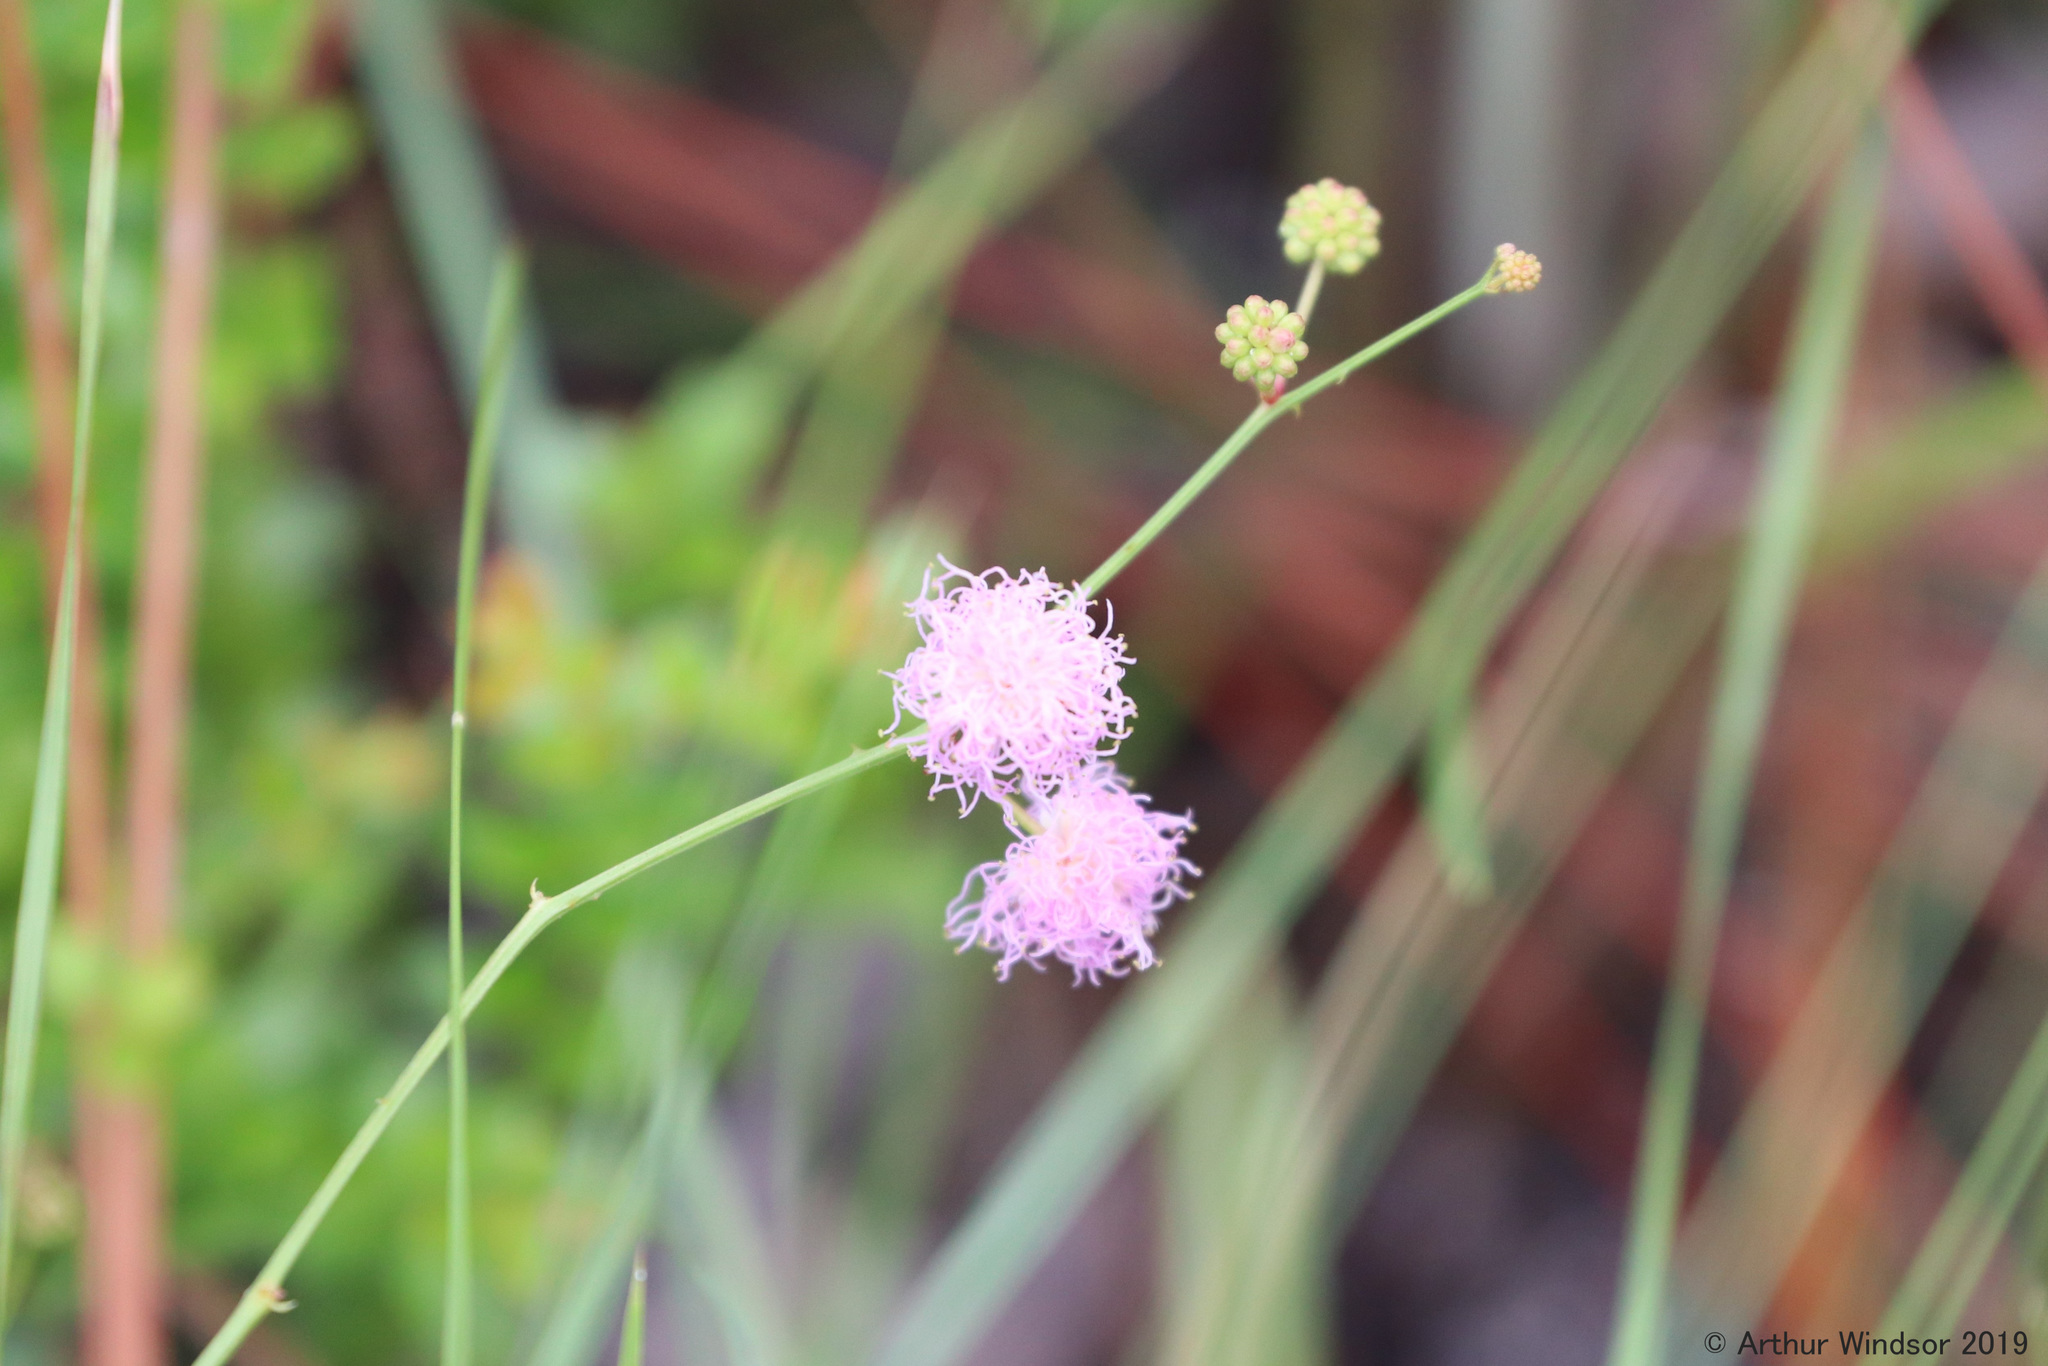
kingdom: Plantae
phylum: Tracheophyta
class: Magnoliopsida
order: Fabales
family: Fabaceae
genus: Mimosa
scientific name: Mimosa floridana
